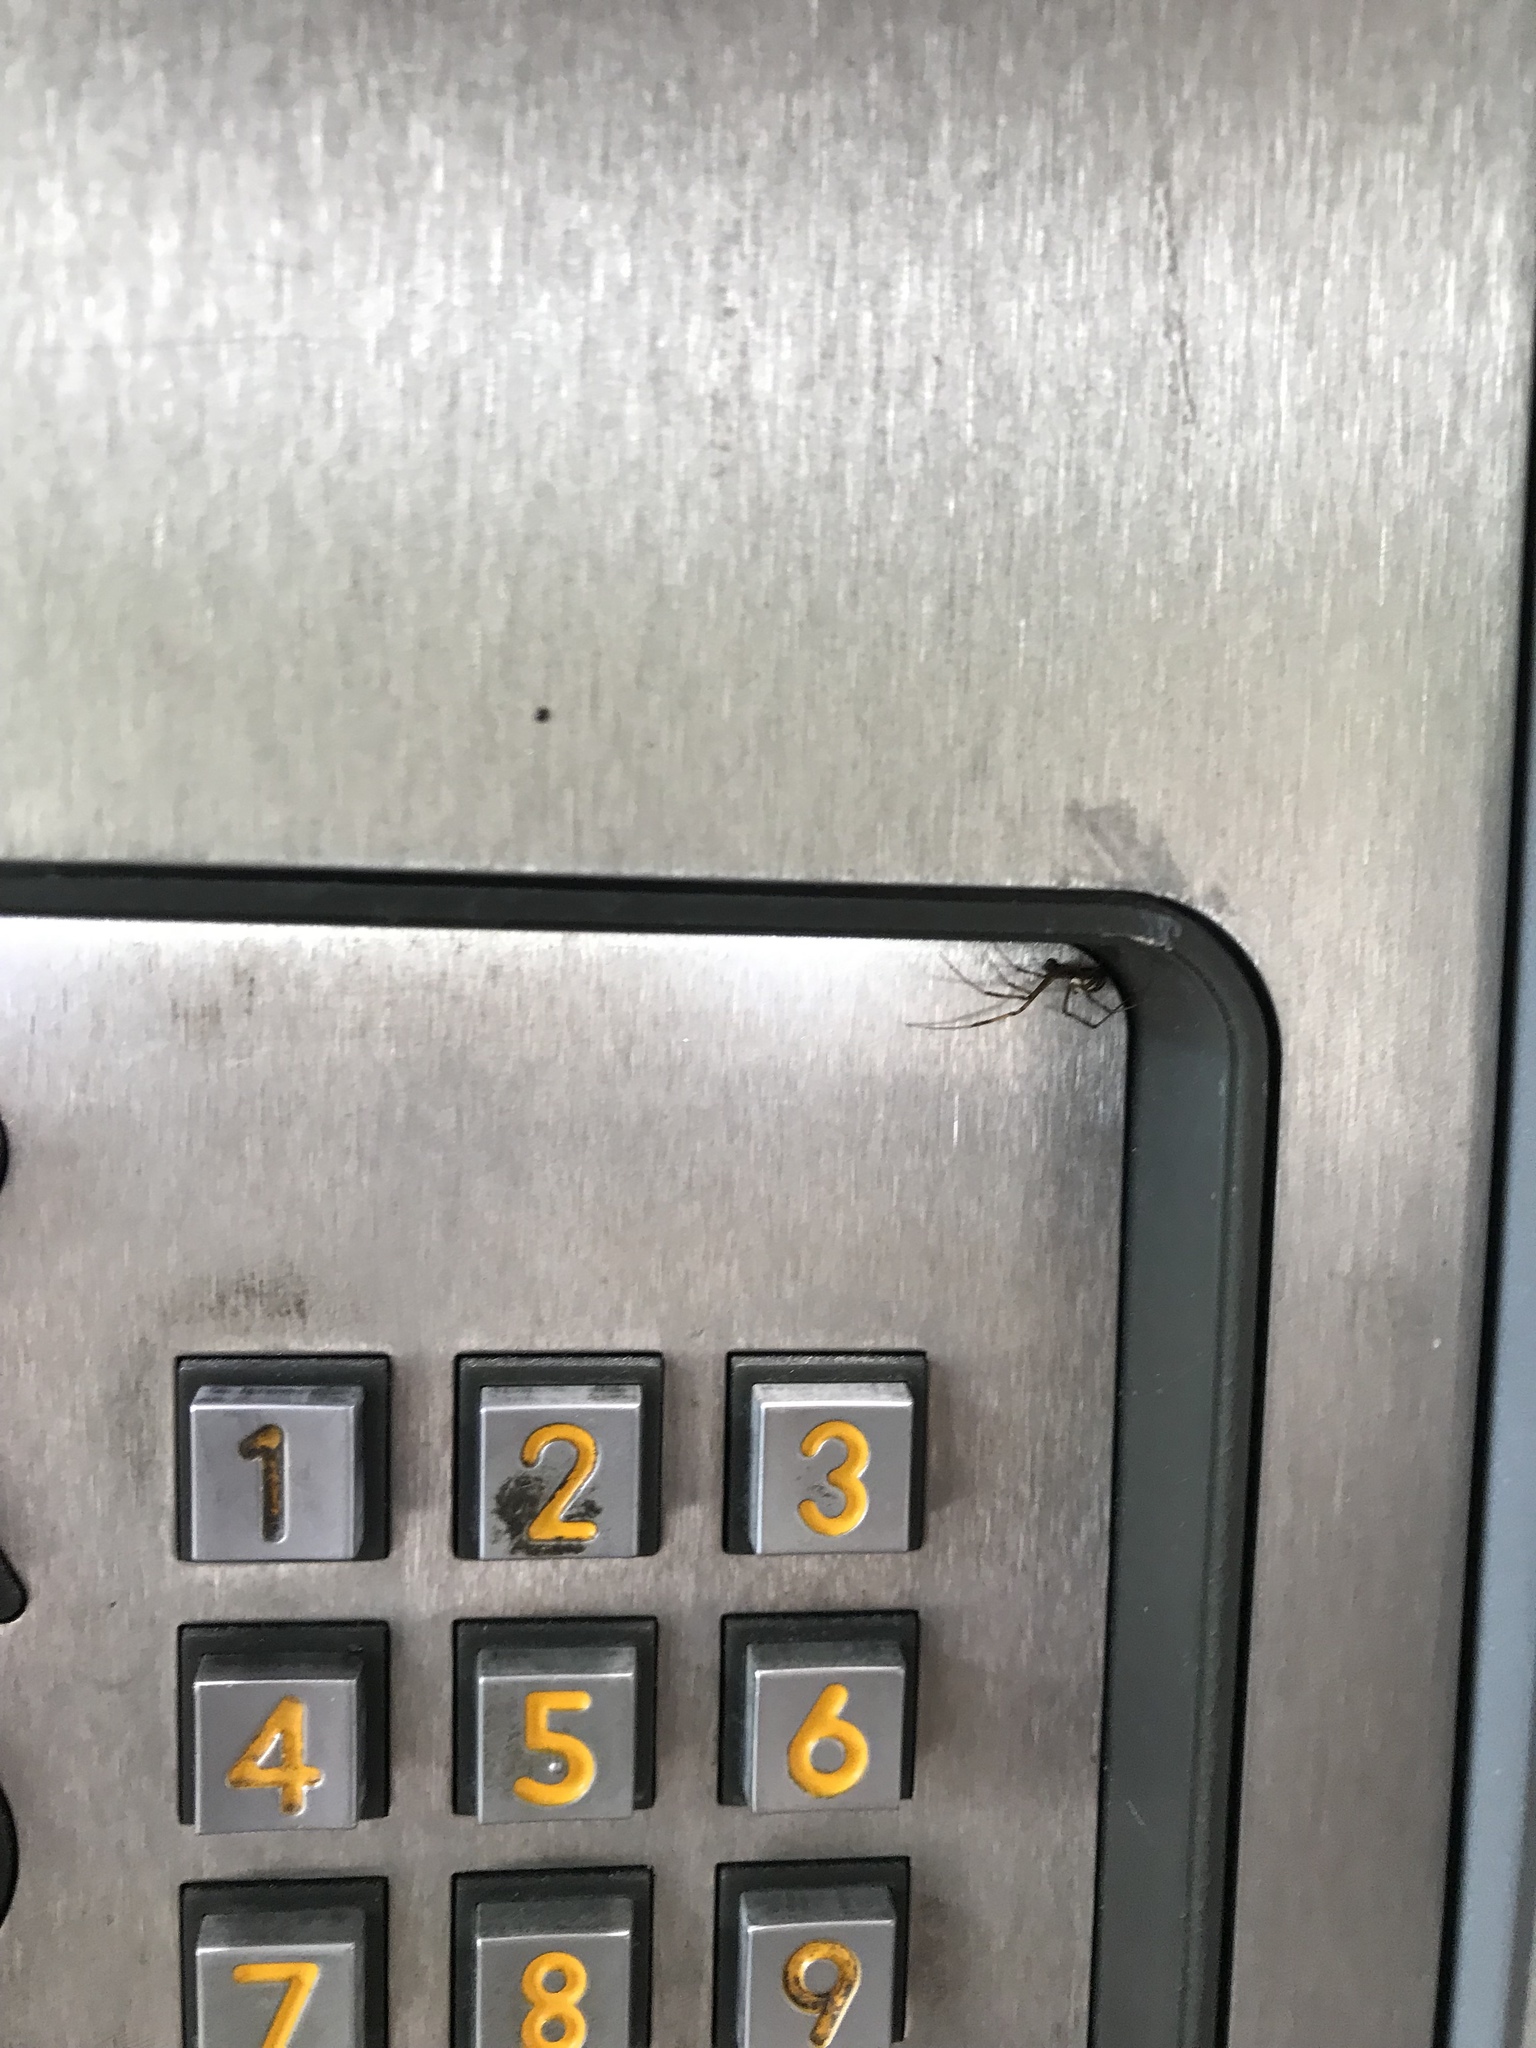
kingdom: Animalia
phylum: Arthropoda
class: Arachnida
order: Araneae
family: Theridiidae
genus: Latrodectus
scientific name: Latrodectus hesperus
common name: Western black widow
